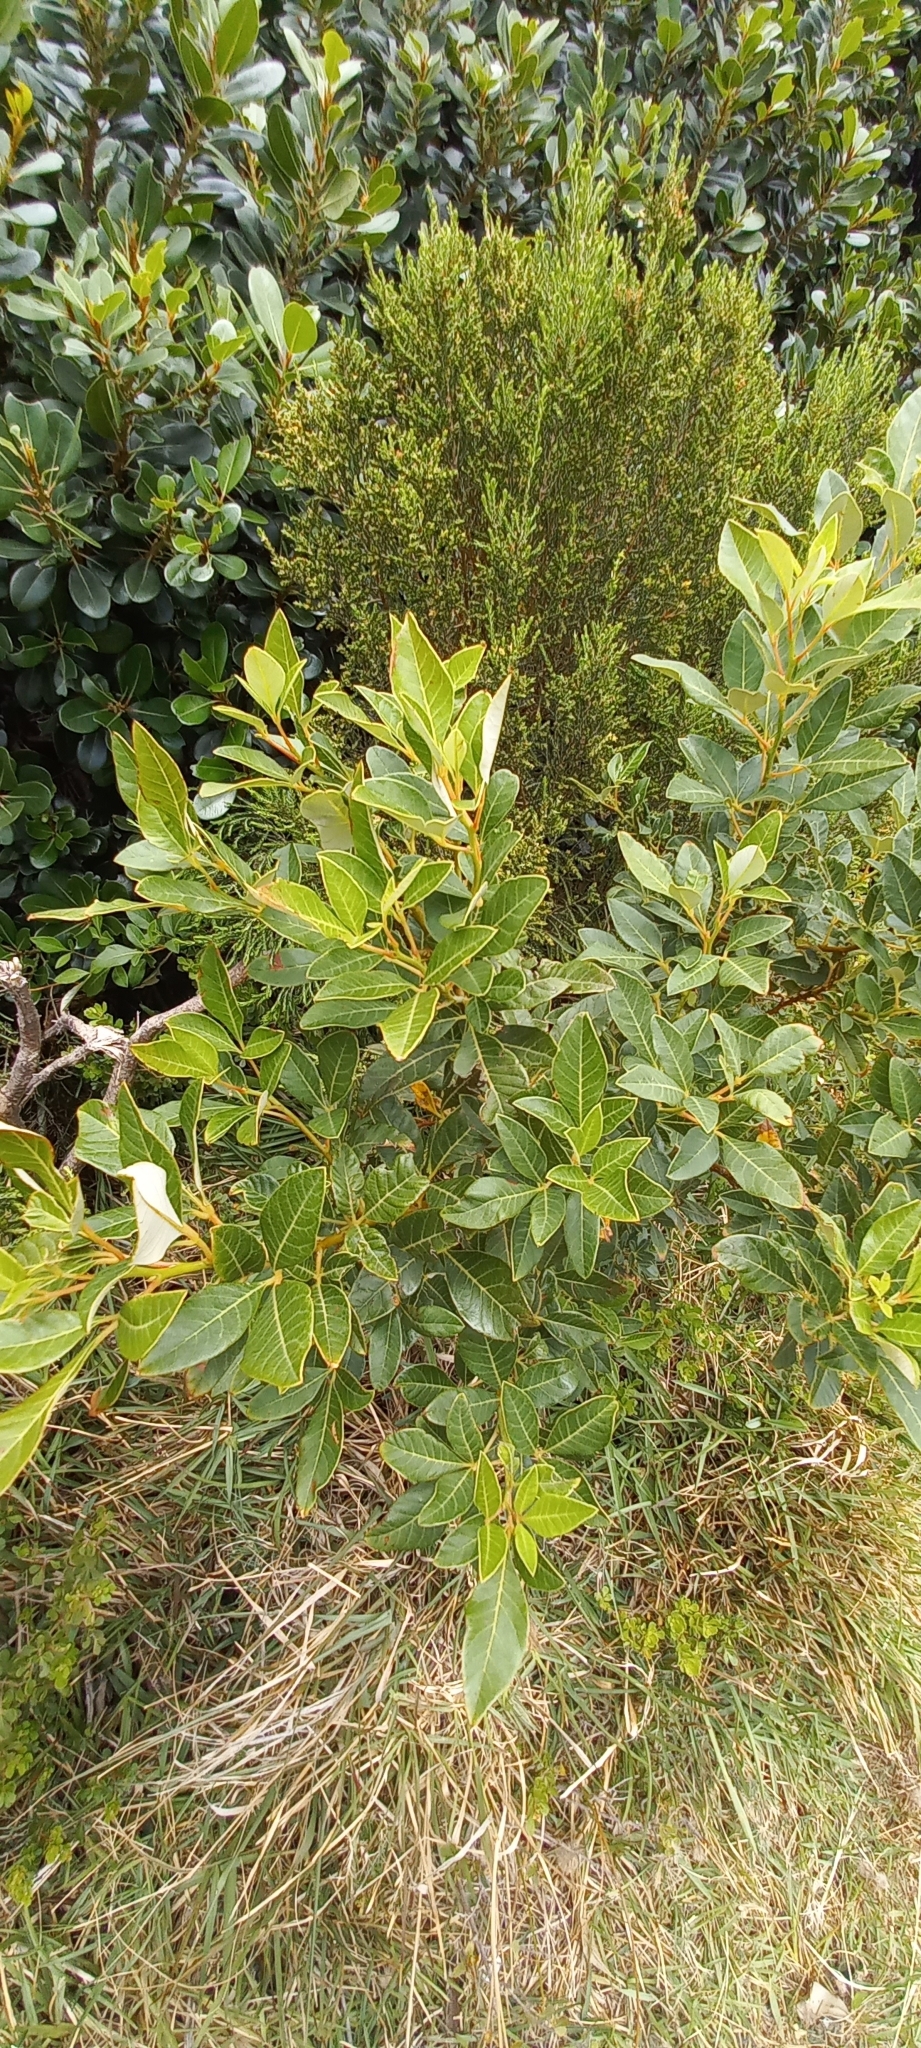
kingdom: Plantae
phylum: Tracheophyta
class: Magnoliopsida
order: Sapindales
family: Anacardiaceae
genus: Searsia
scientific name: Searsia tomentosa
